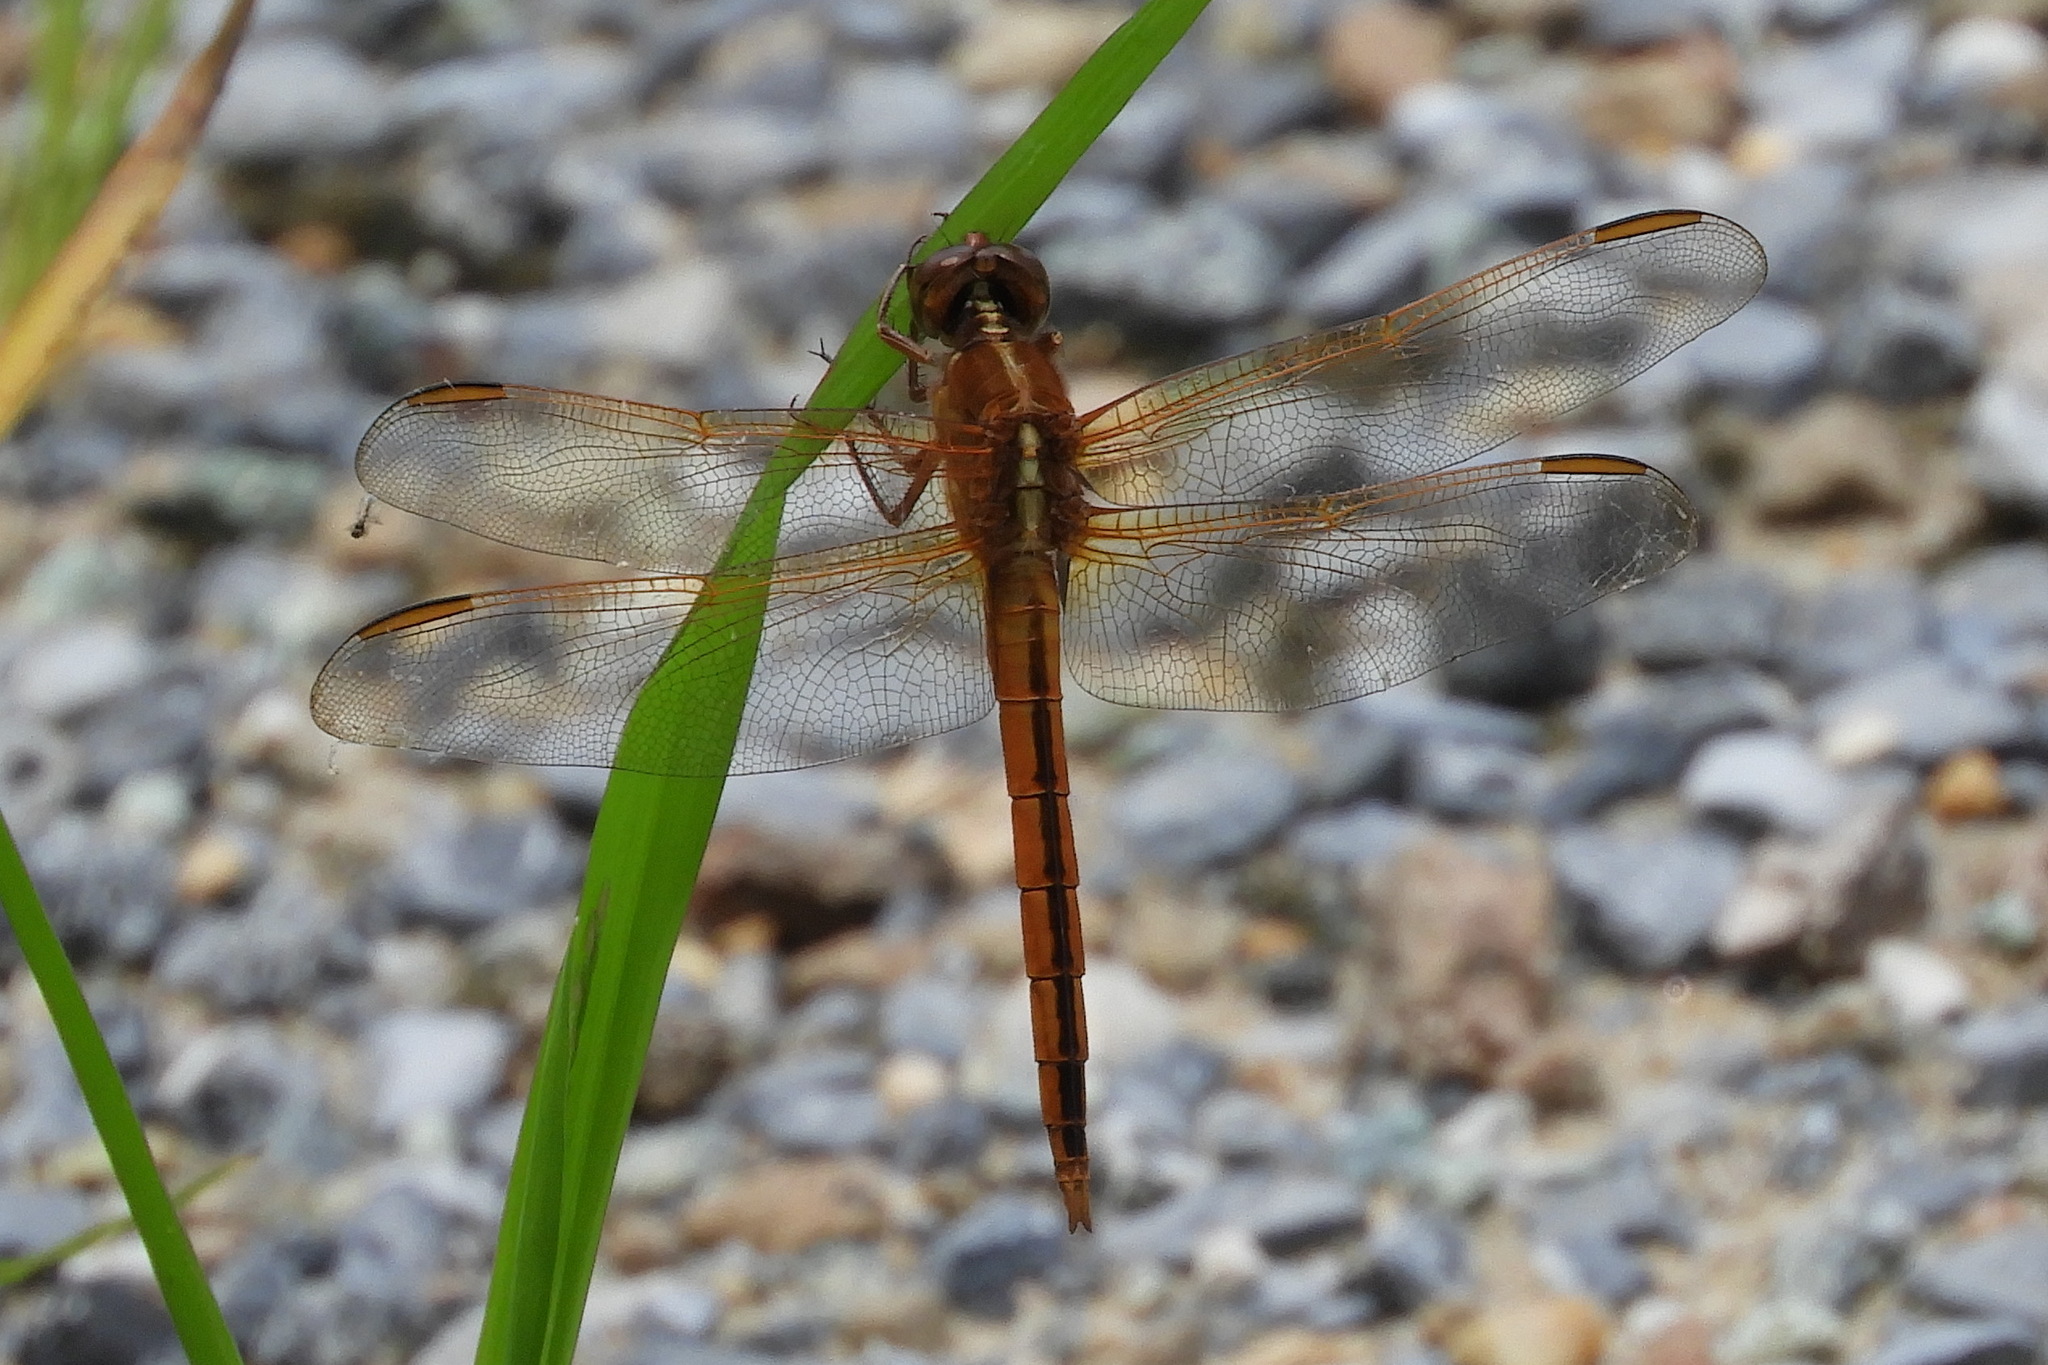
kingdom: Animalia
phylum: Arthropoda
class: Insecta
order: Odonata
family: Libellulidae
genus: Libellula
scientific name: Libellula needhami
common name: Needham's skimmer
